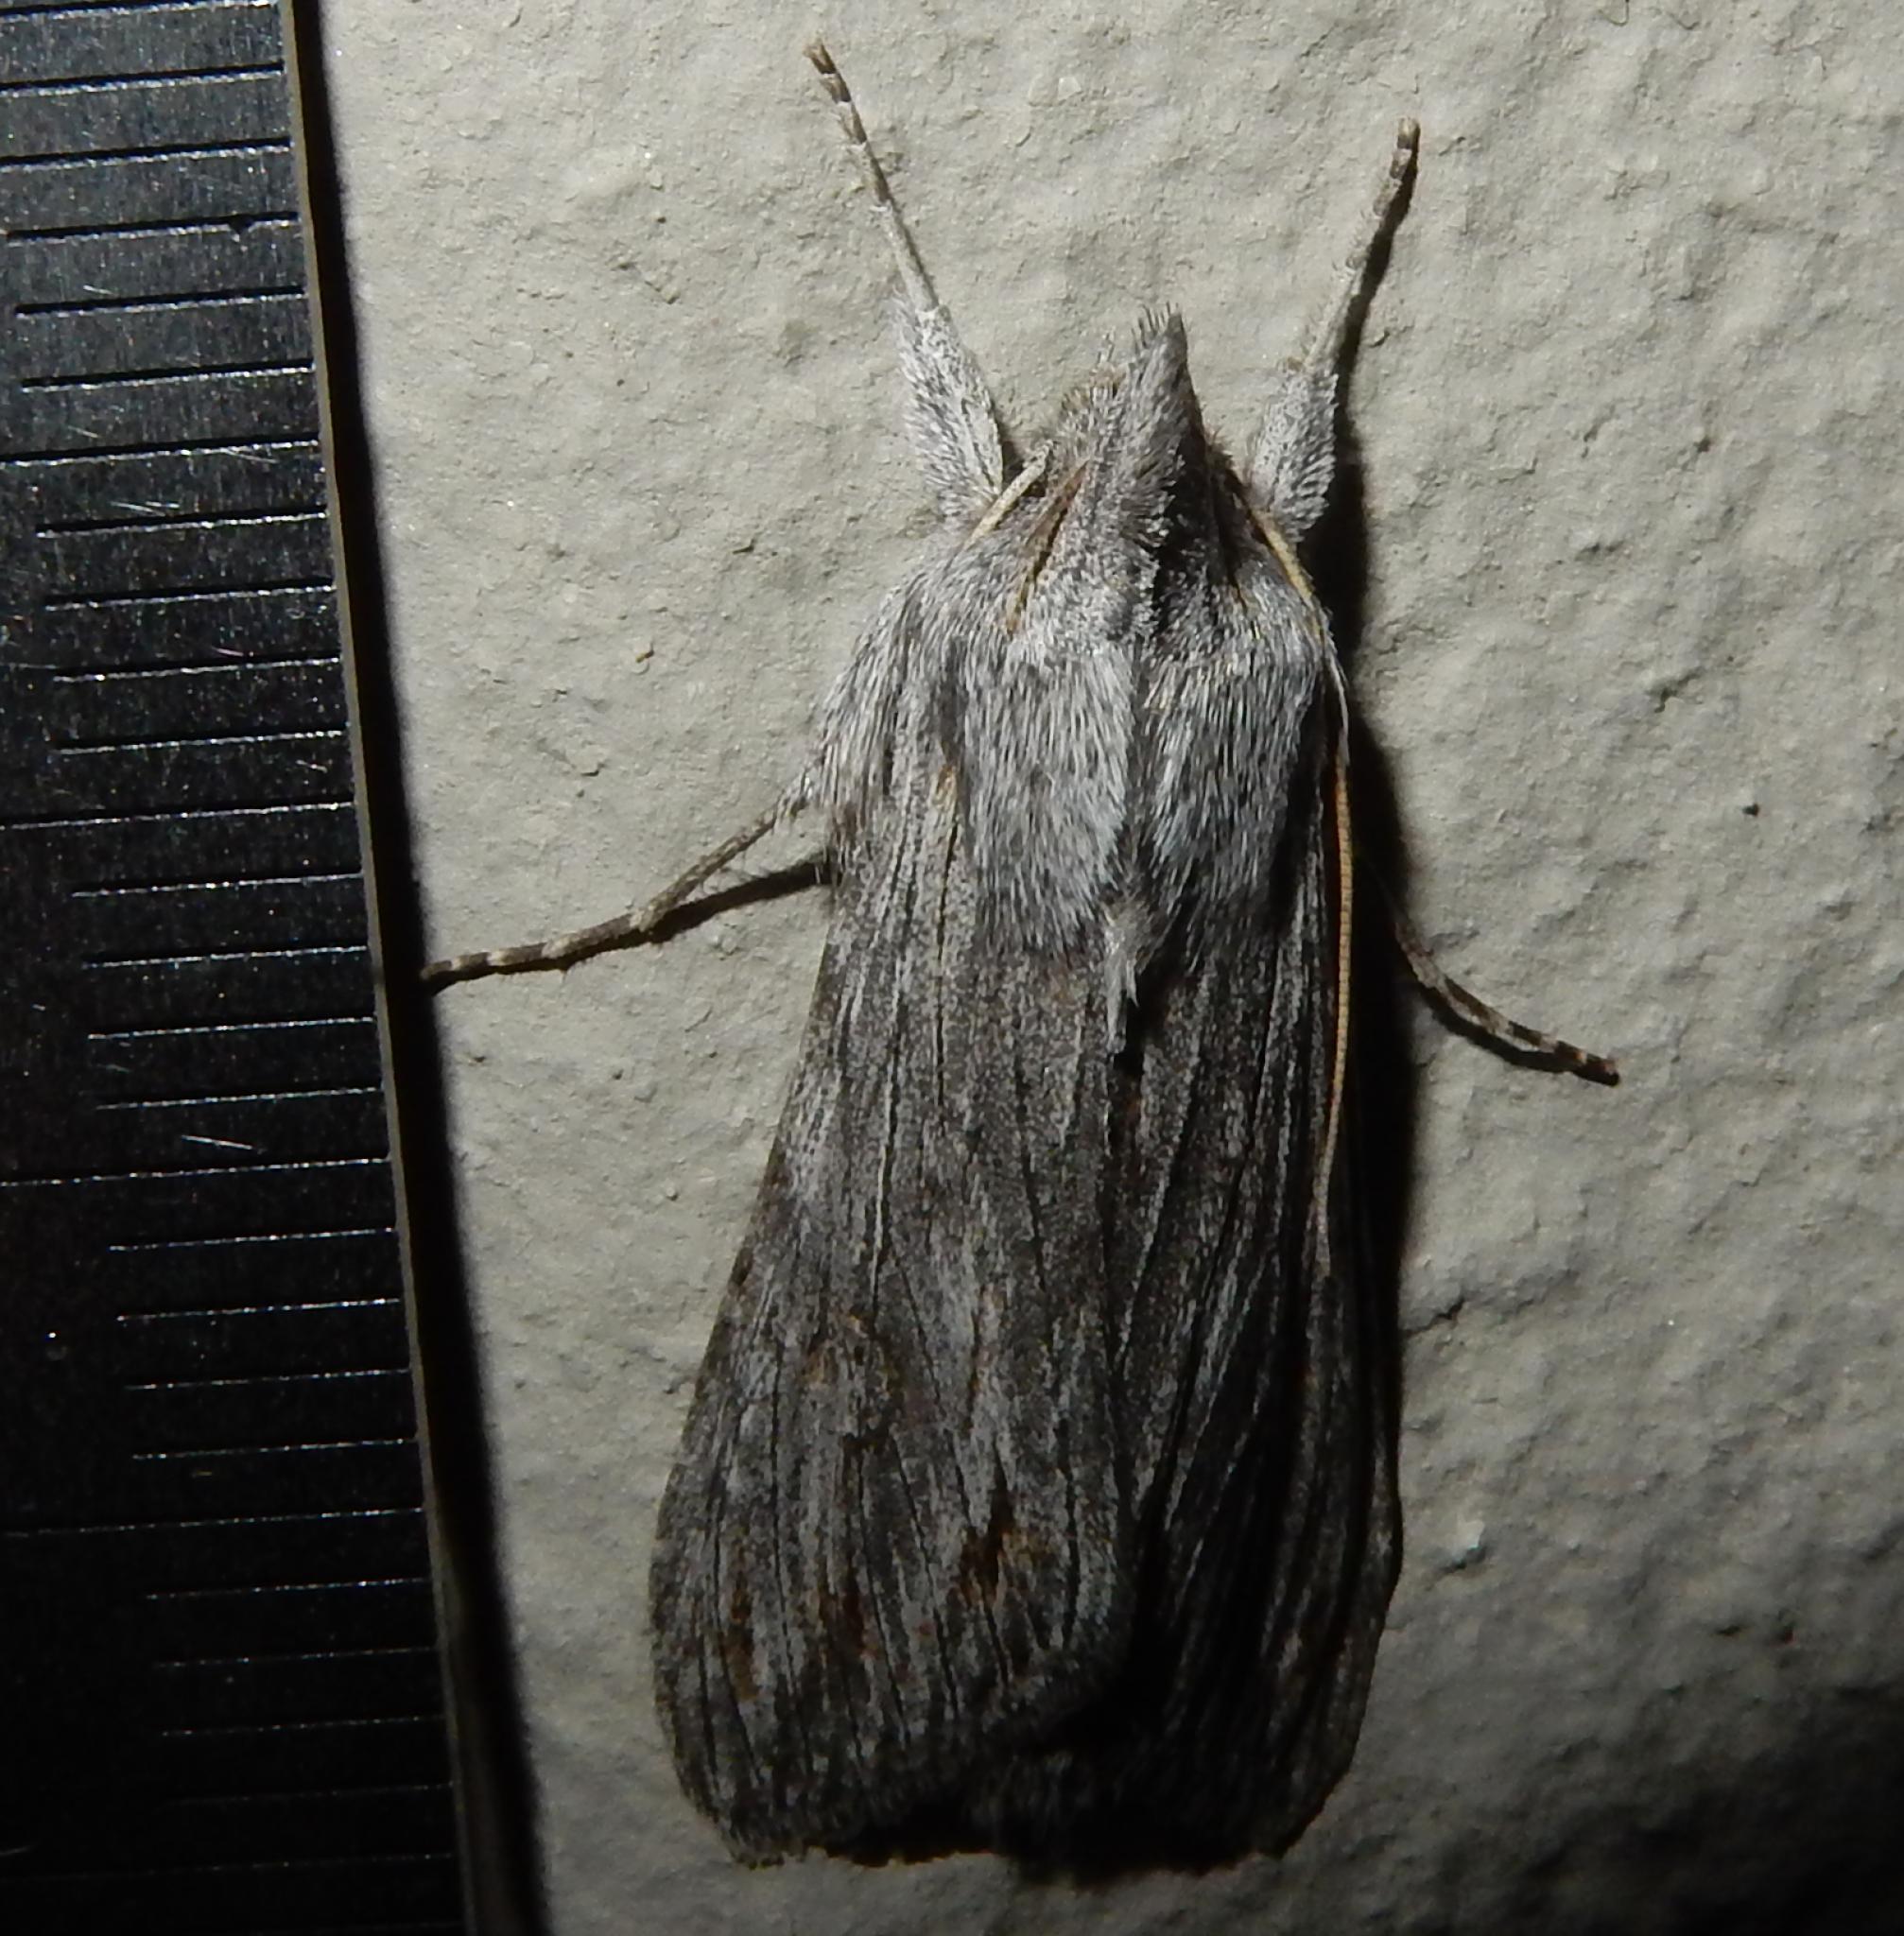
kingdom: Animalia
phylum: Arthropoda
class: Insecta
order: Lepidoptera
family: Noctuidae
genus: Cucullia
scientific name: Cucullia consimilis
